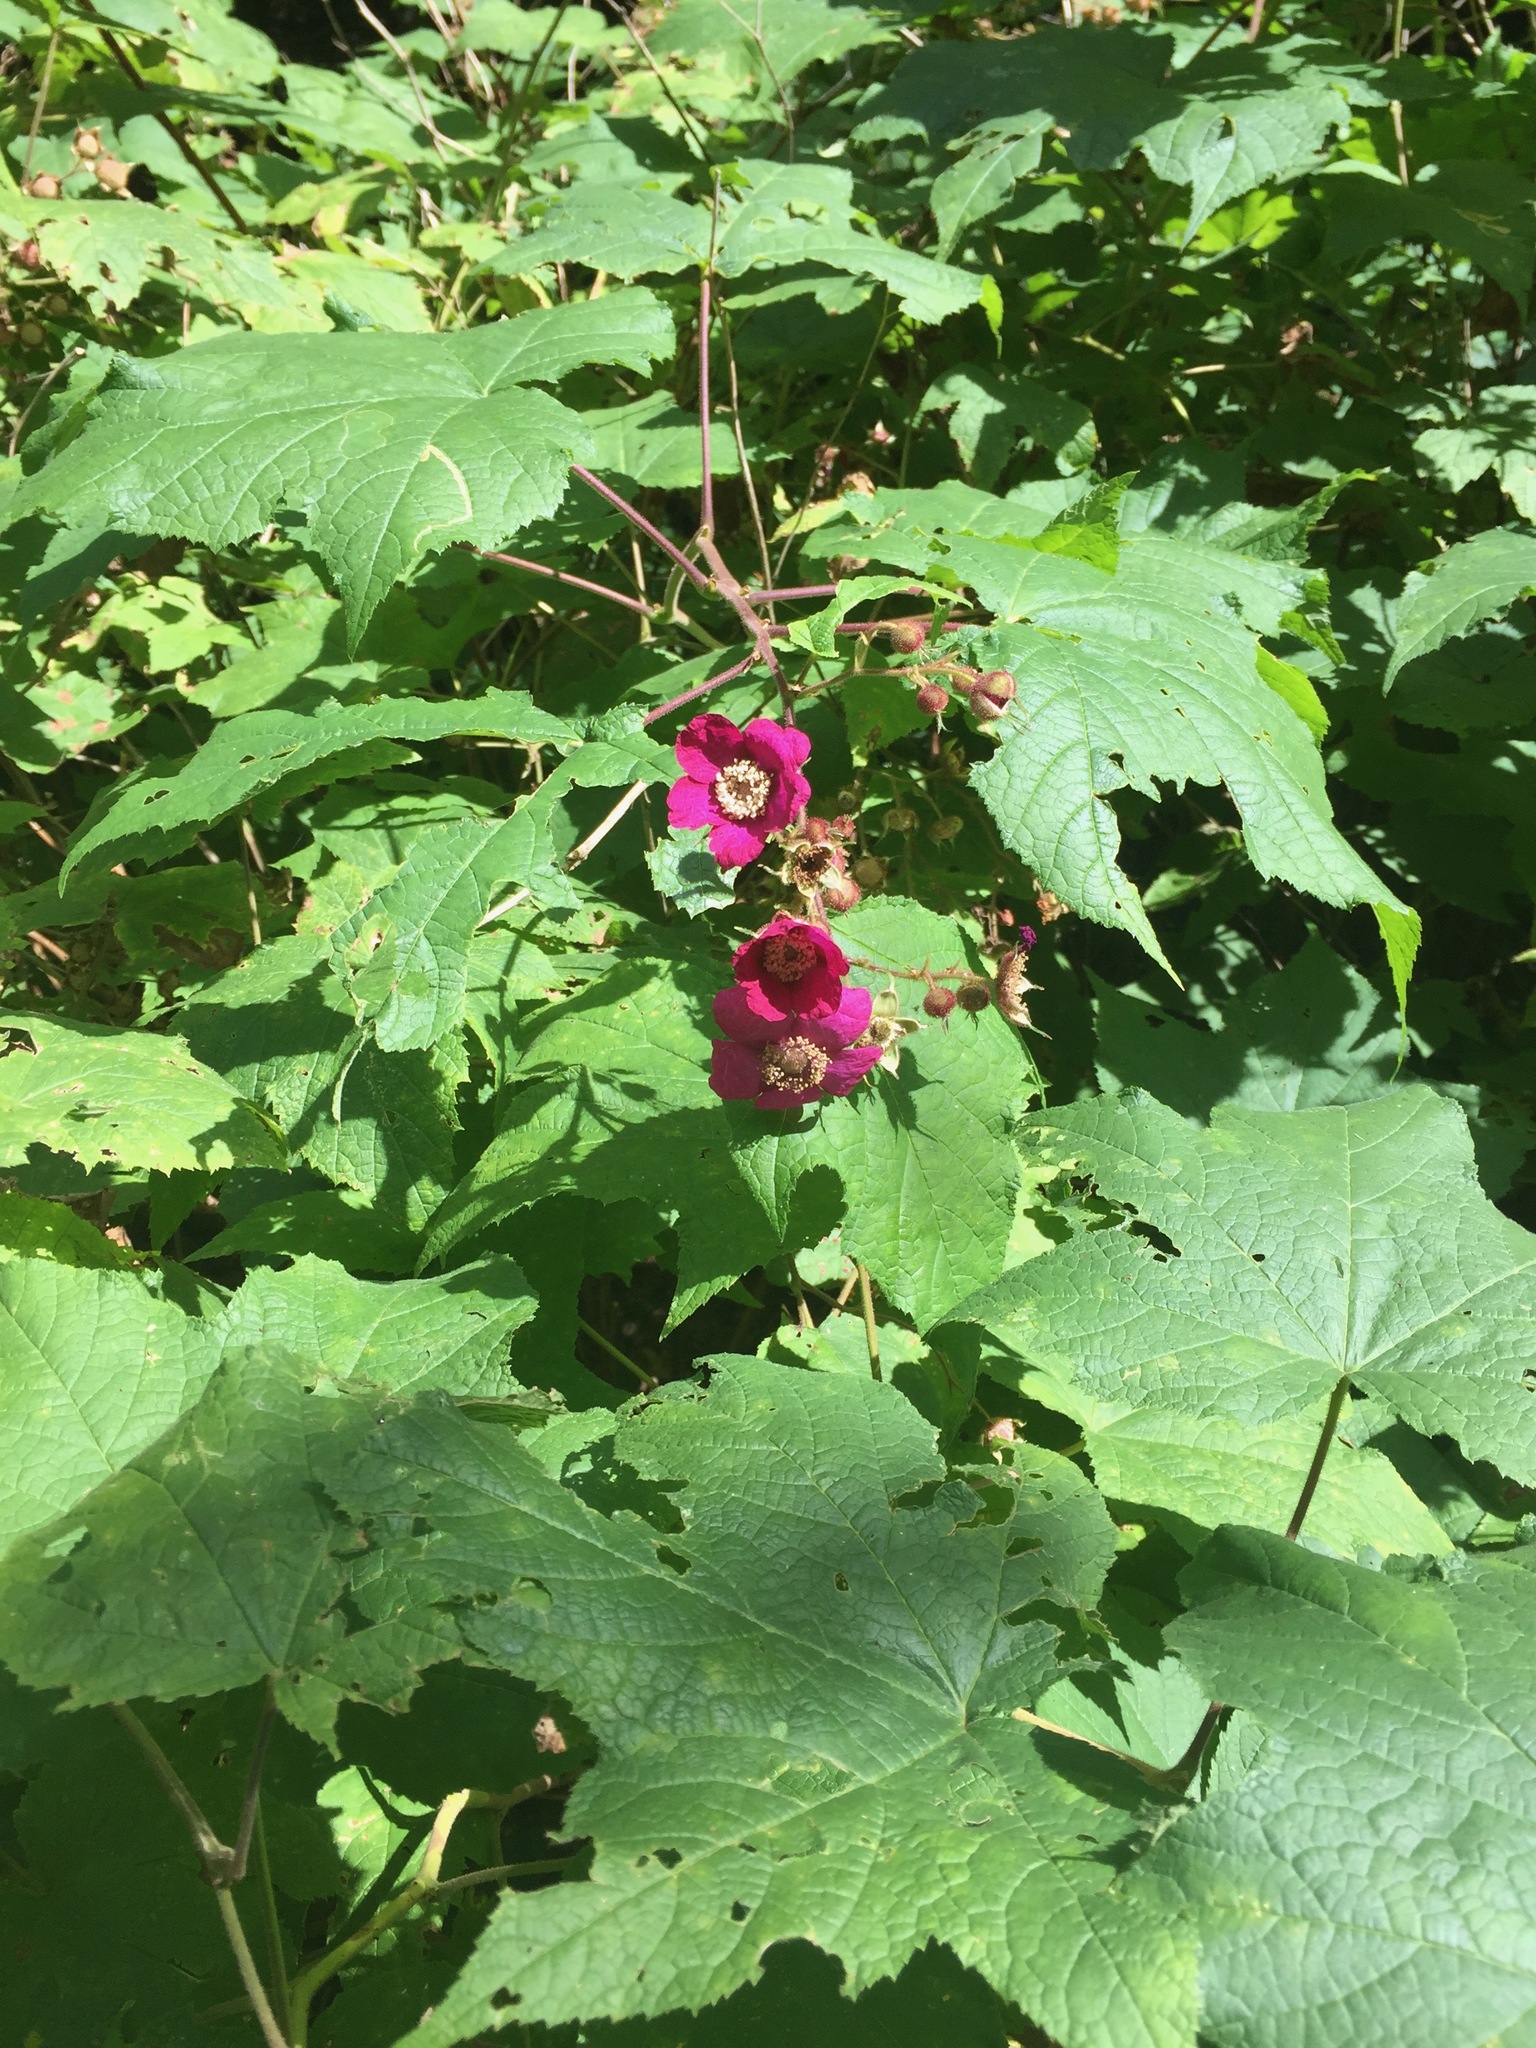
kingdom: Plantae
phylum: Tracheophyta
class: Magnoliopsida
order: Rosales
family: Rosaceae
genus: Rubus
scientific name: Rubus odoratus
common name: Purple-flowered raspberry
